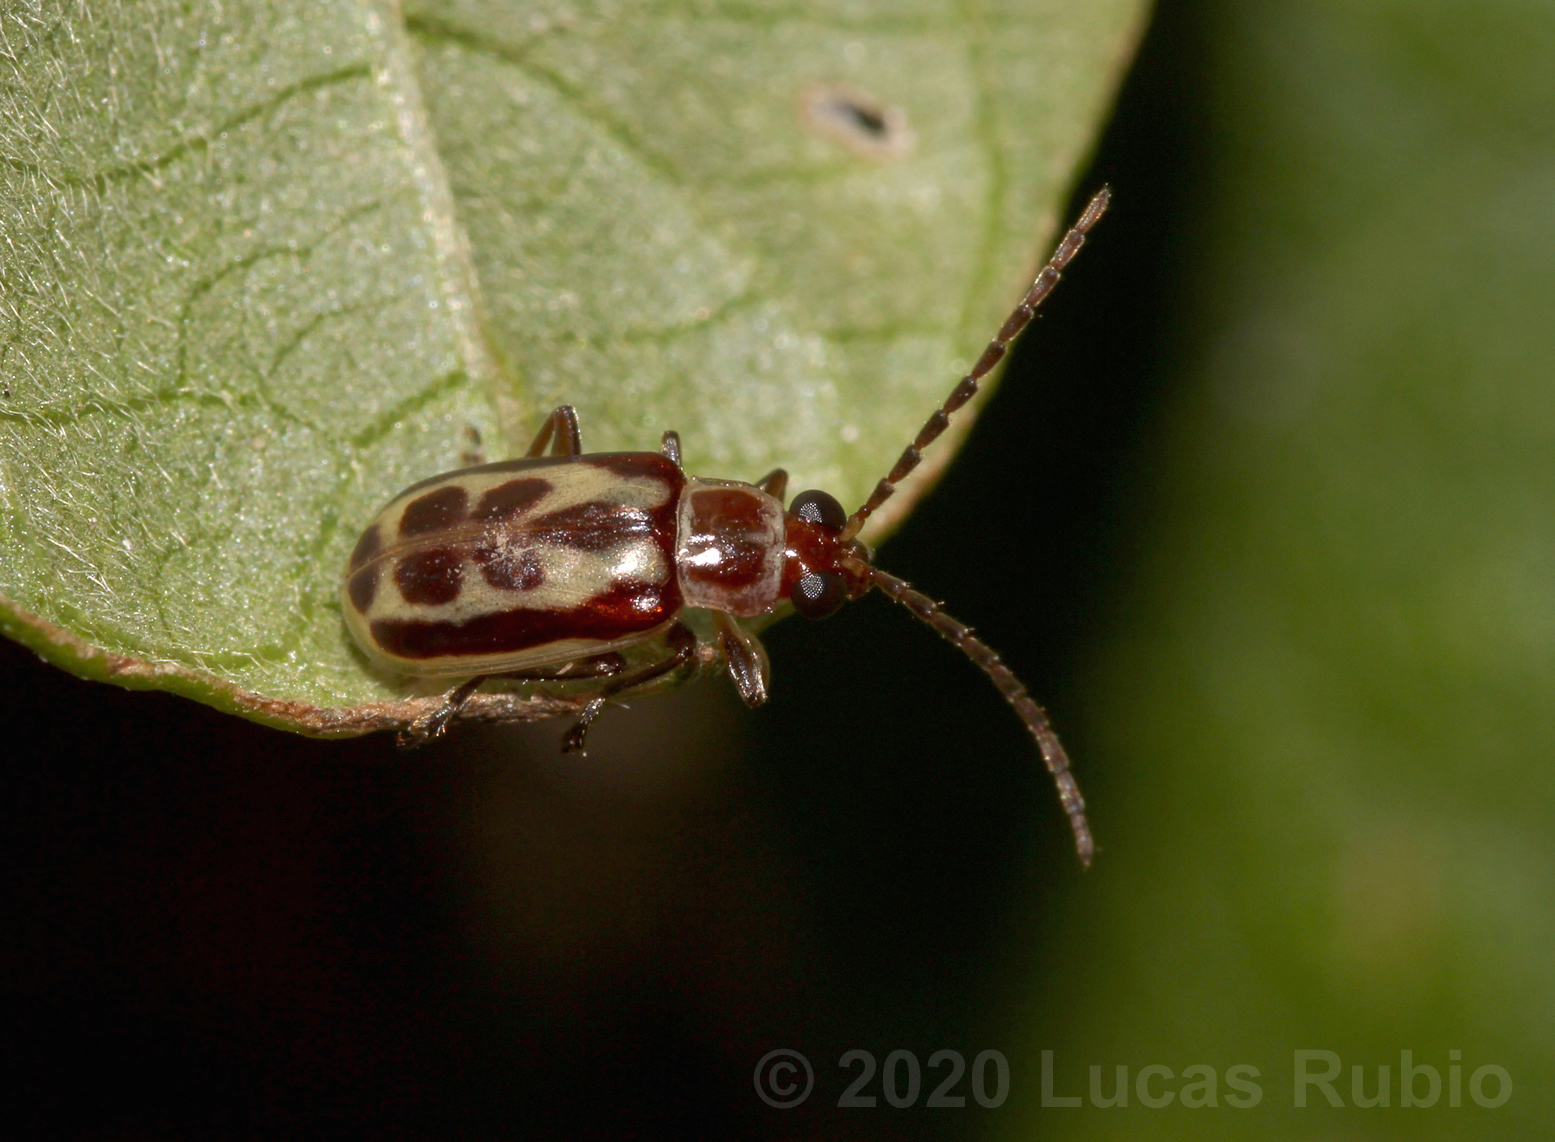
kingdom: Animalia
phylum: Arthropoda
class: Insecta
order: Coleoptera
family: Chrysomelidae
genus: Paranapiacaba
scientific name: Paranapiacaba significata
